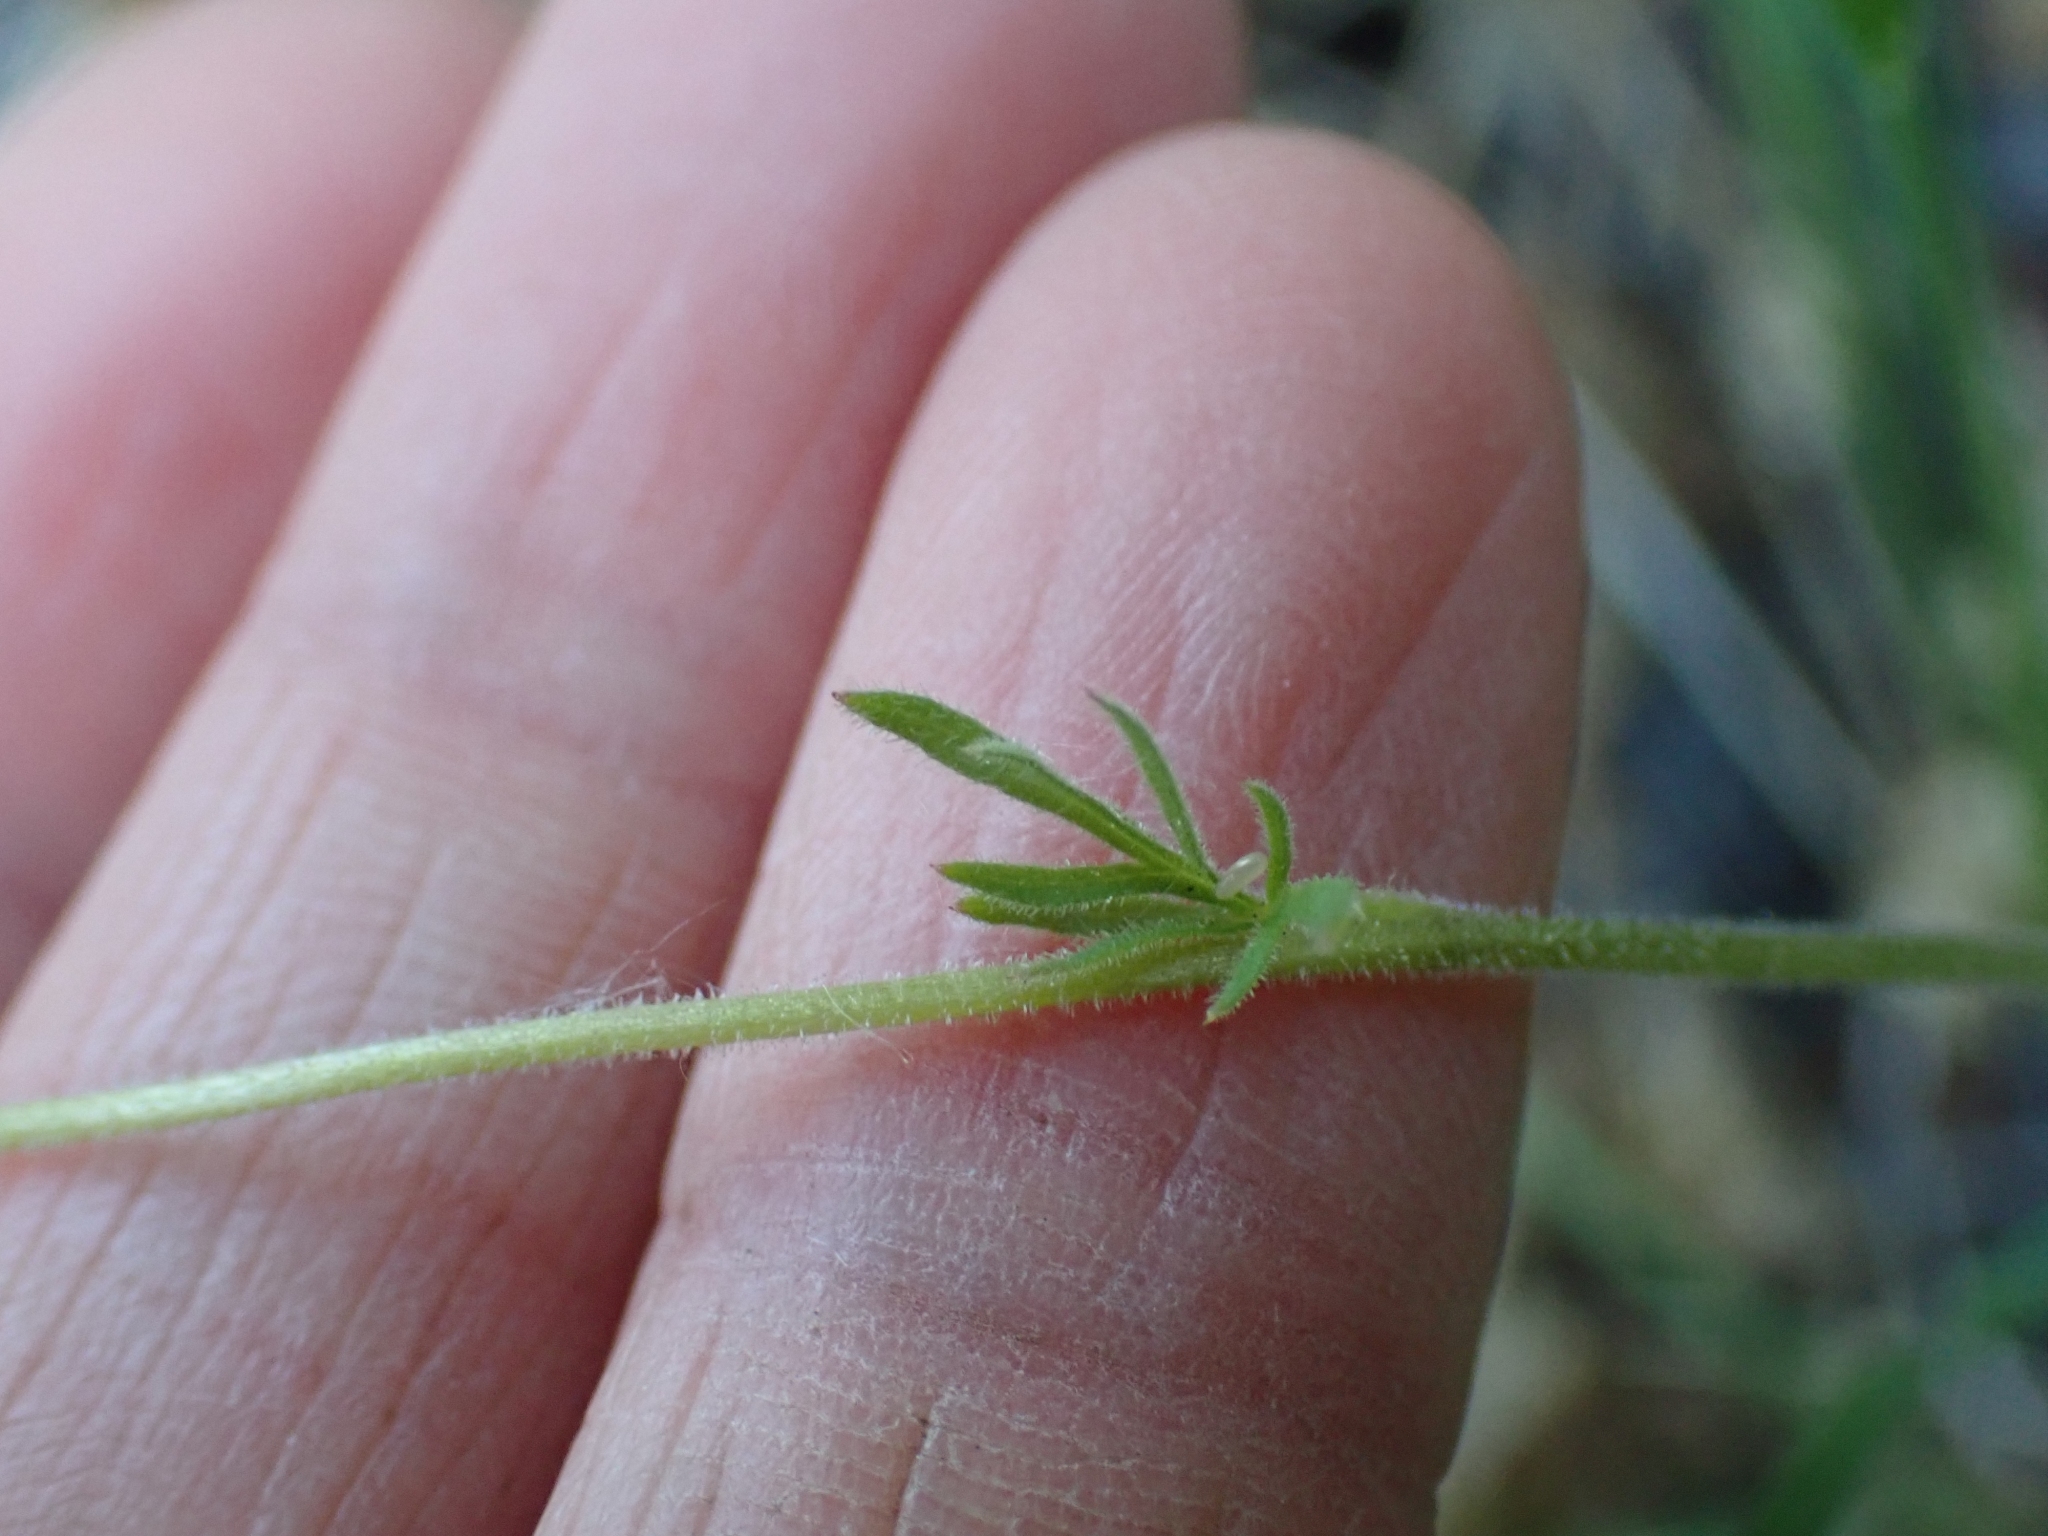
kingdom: Plantae
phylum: Tracheophyta
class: Magnoliopsida
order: Saxifragales
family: Saxifragaceae
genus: Lithophragma
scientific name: Lithophragma parviflorum
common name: Small-flowered fringe-cup
